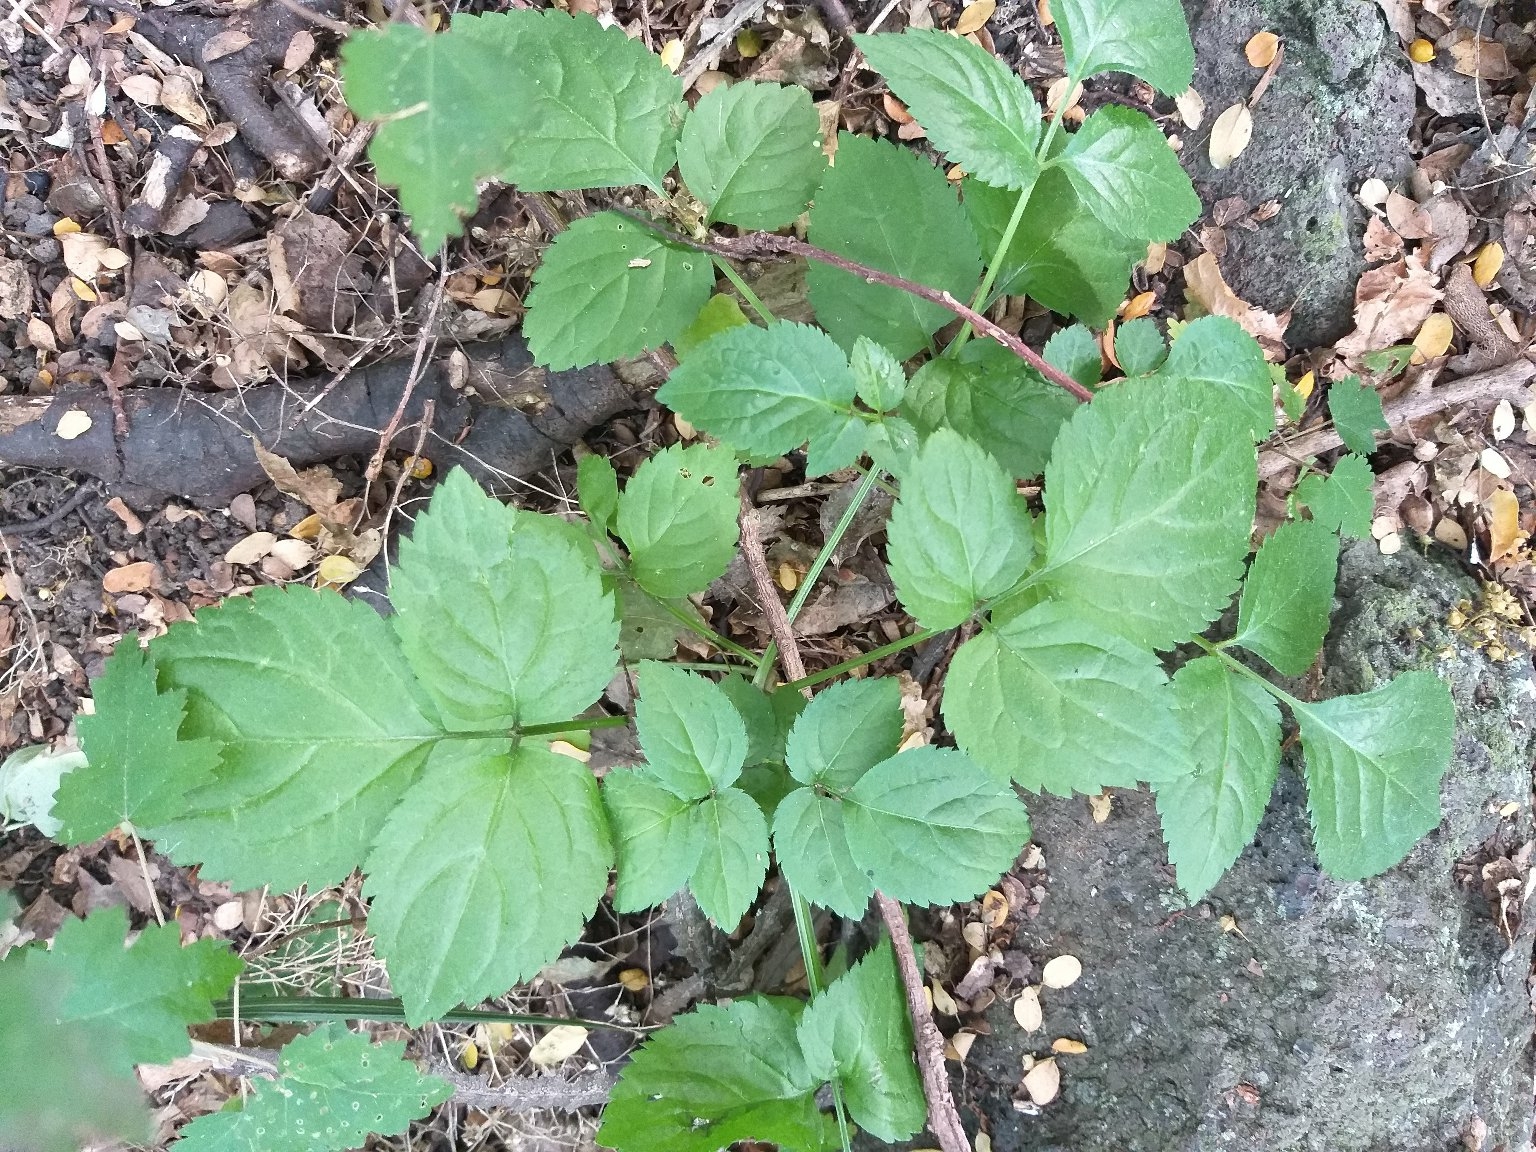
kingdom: Plantae
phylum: Tracheophyta
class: Magnoliopsida
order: Dipsacales
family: Viburnaceae
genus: Sambucus
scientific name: Sambucus nigra
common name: Elder
